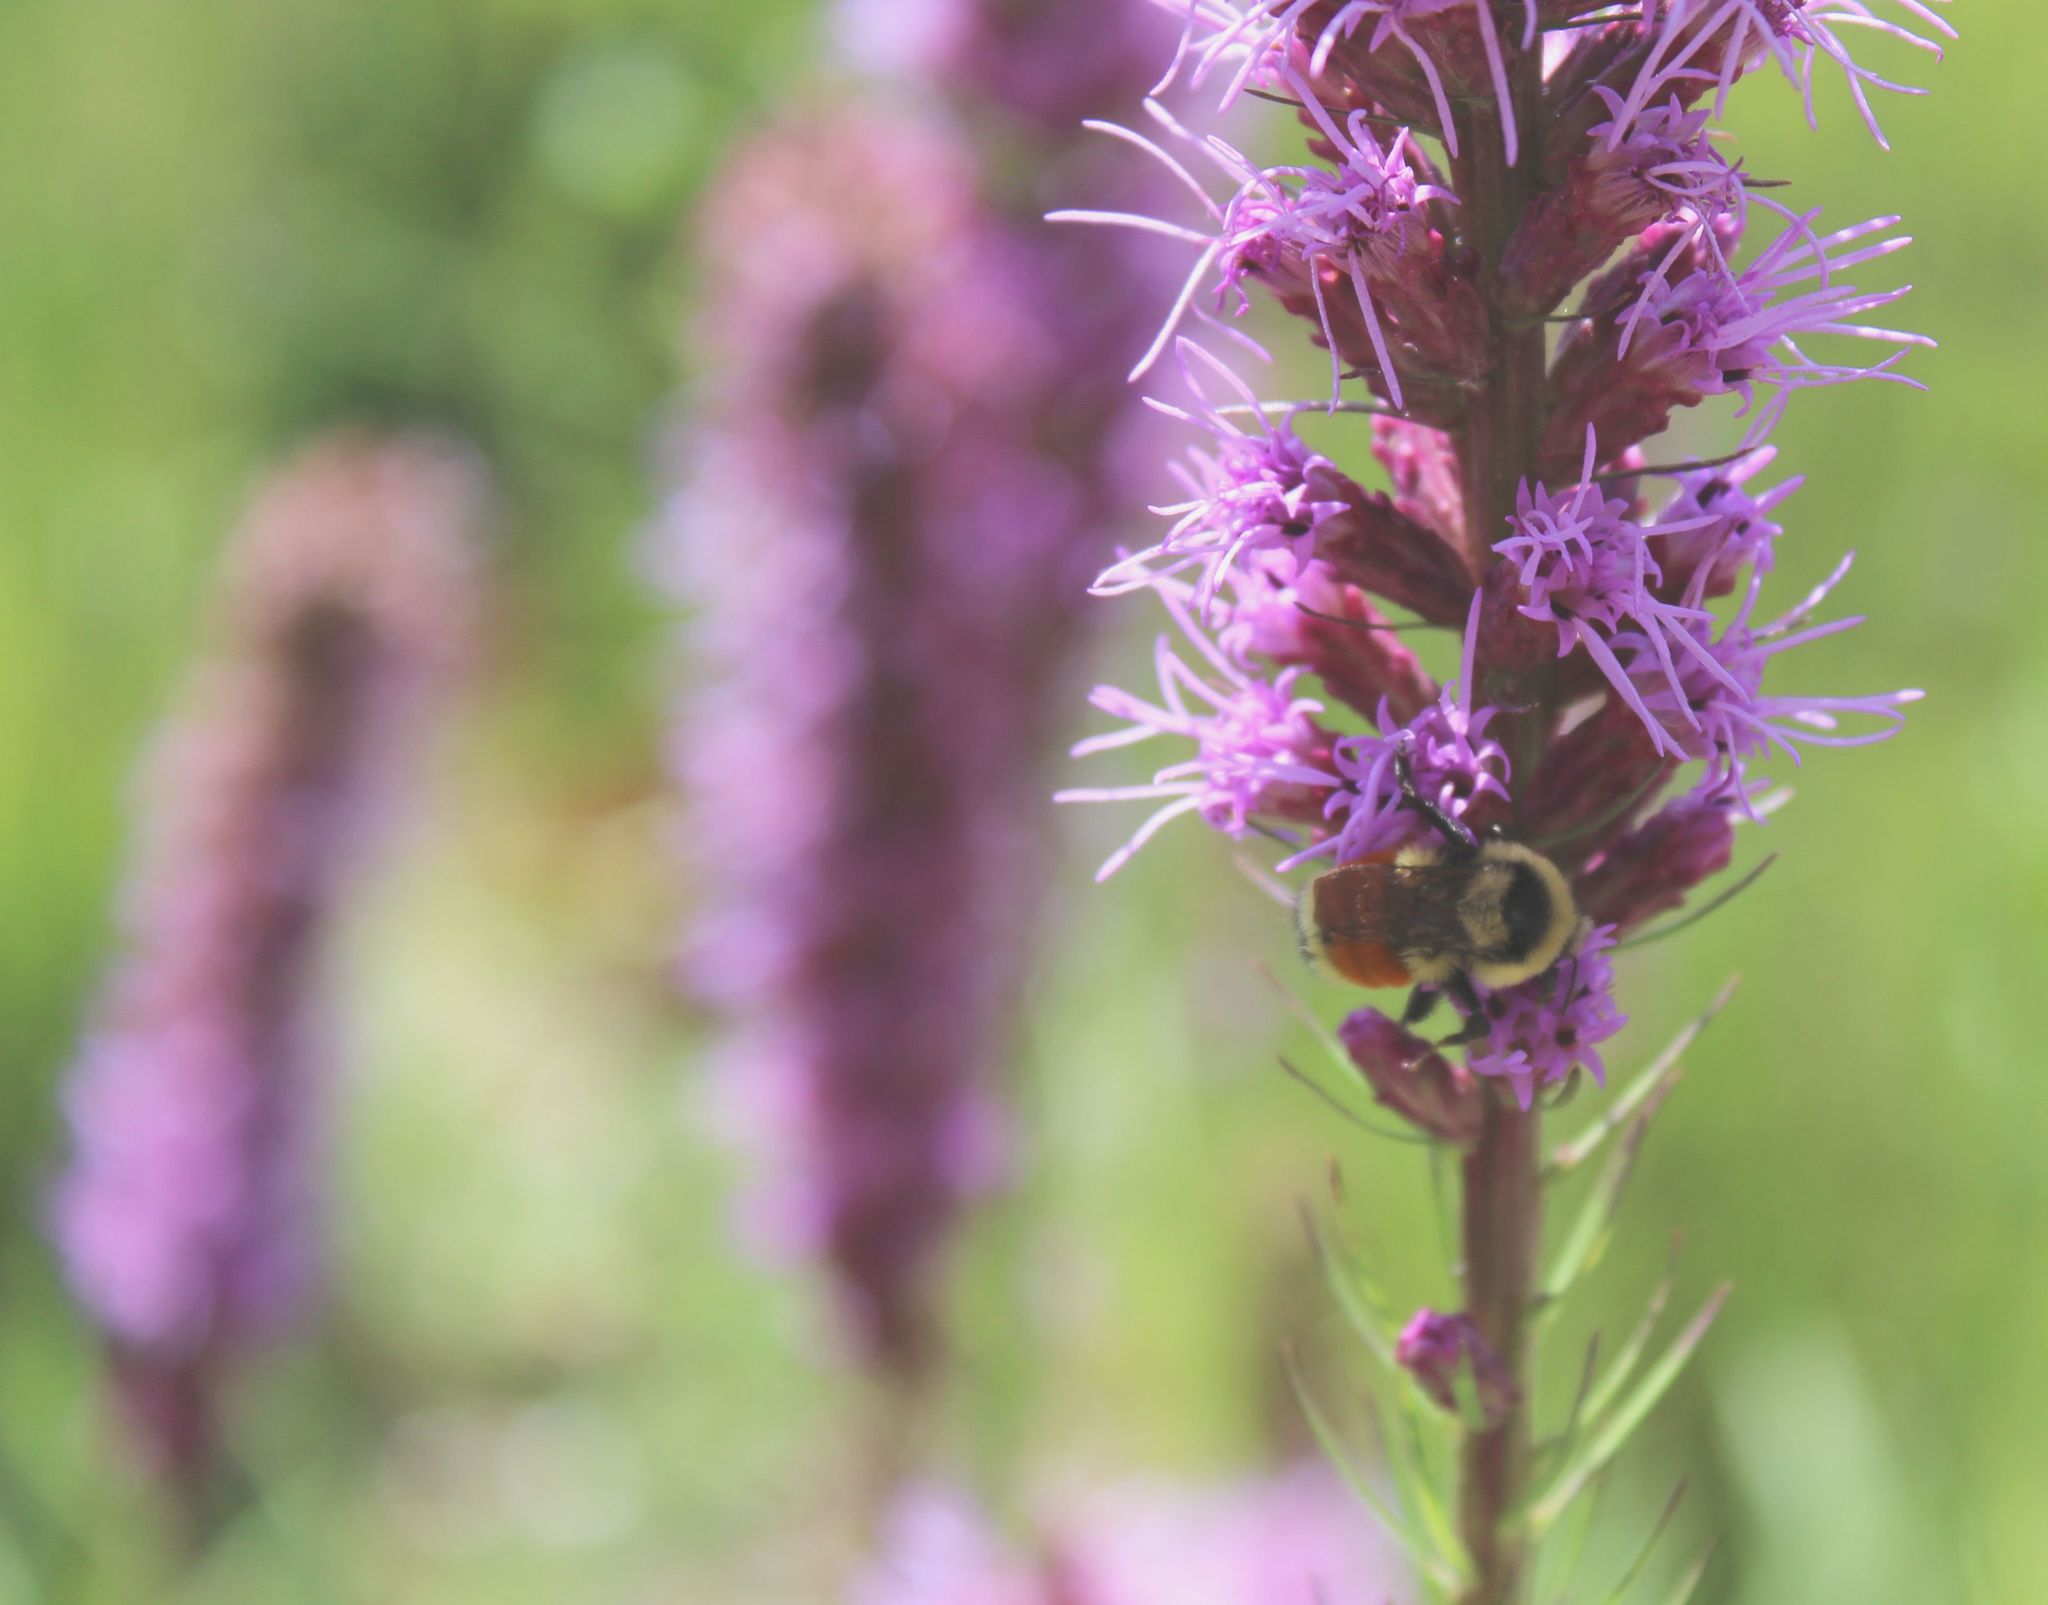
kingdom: Animalia
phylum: Arthropoda
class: Insecta
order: Hymenoptera
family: Apidae
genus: Bombus
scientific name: Bombus huntii
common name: Hunt bumble bee
